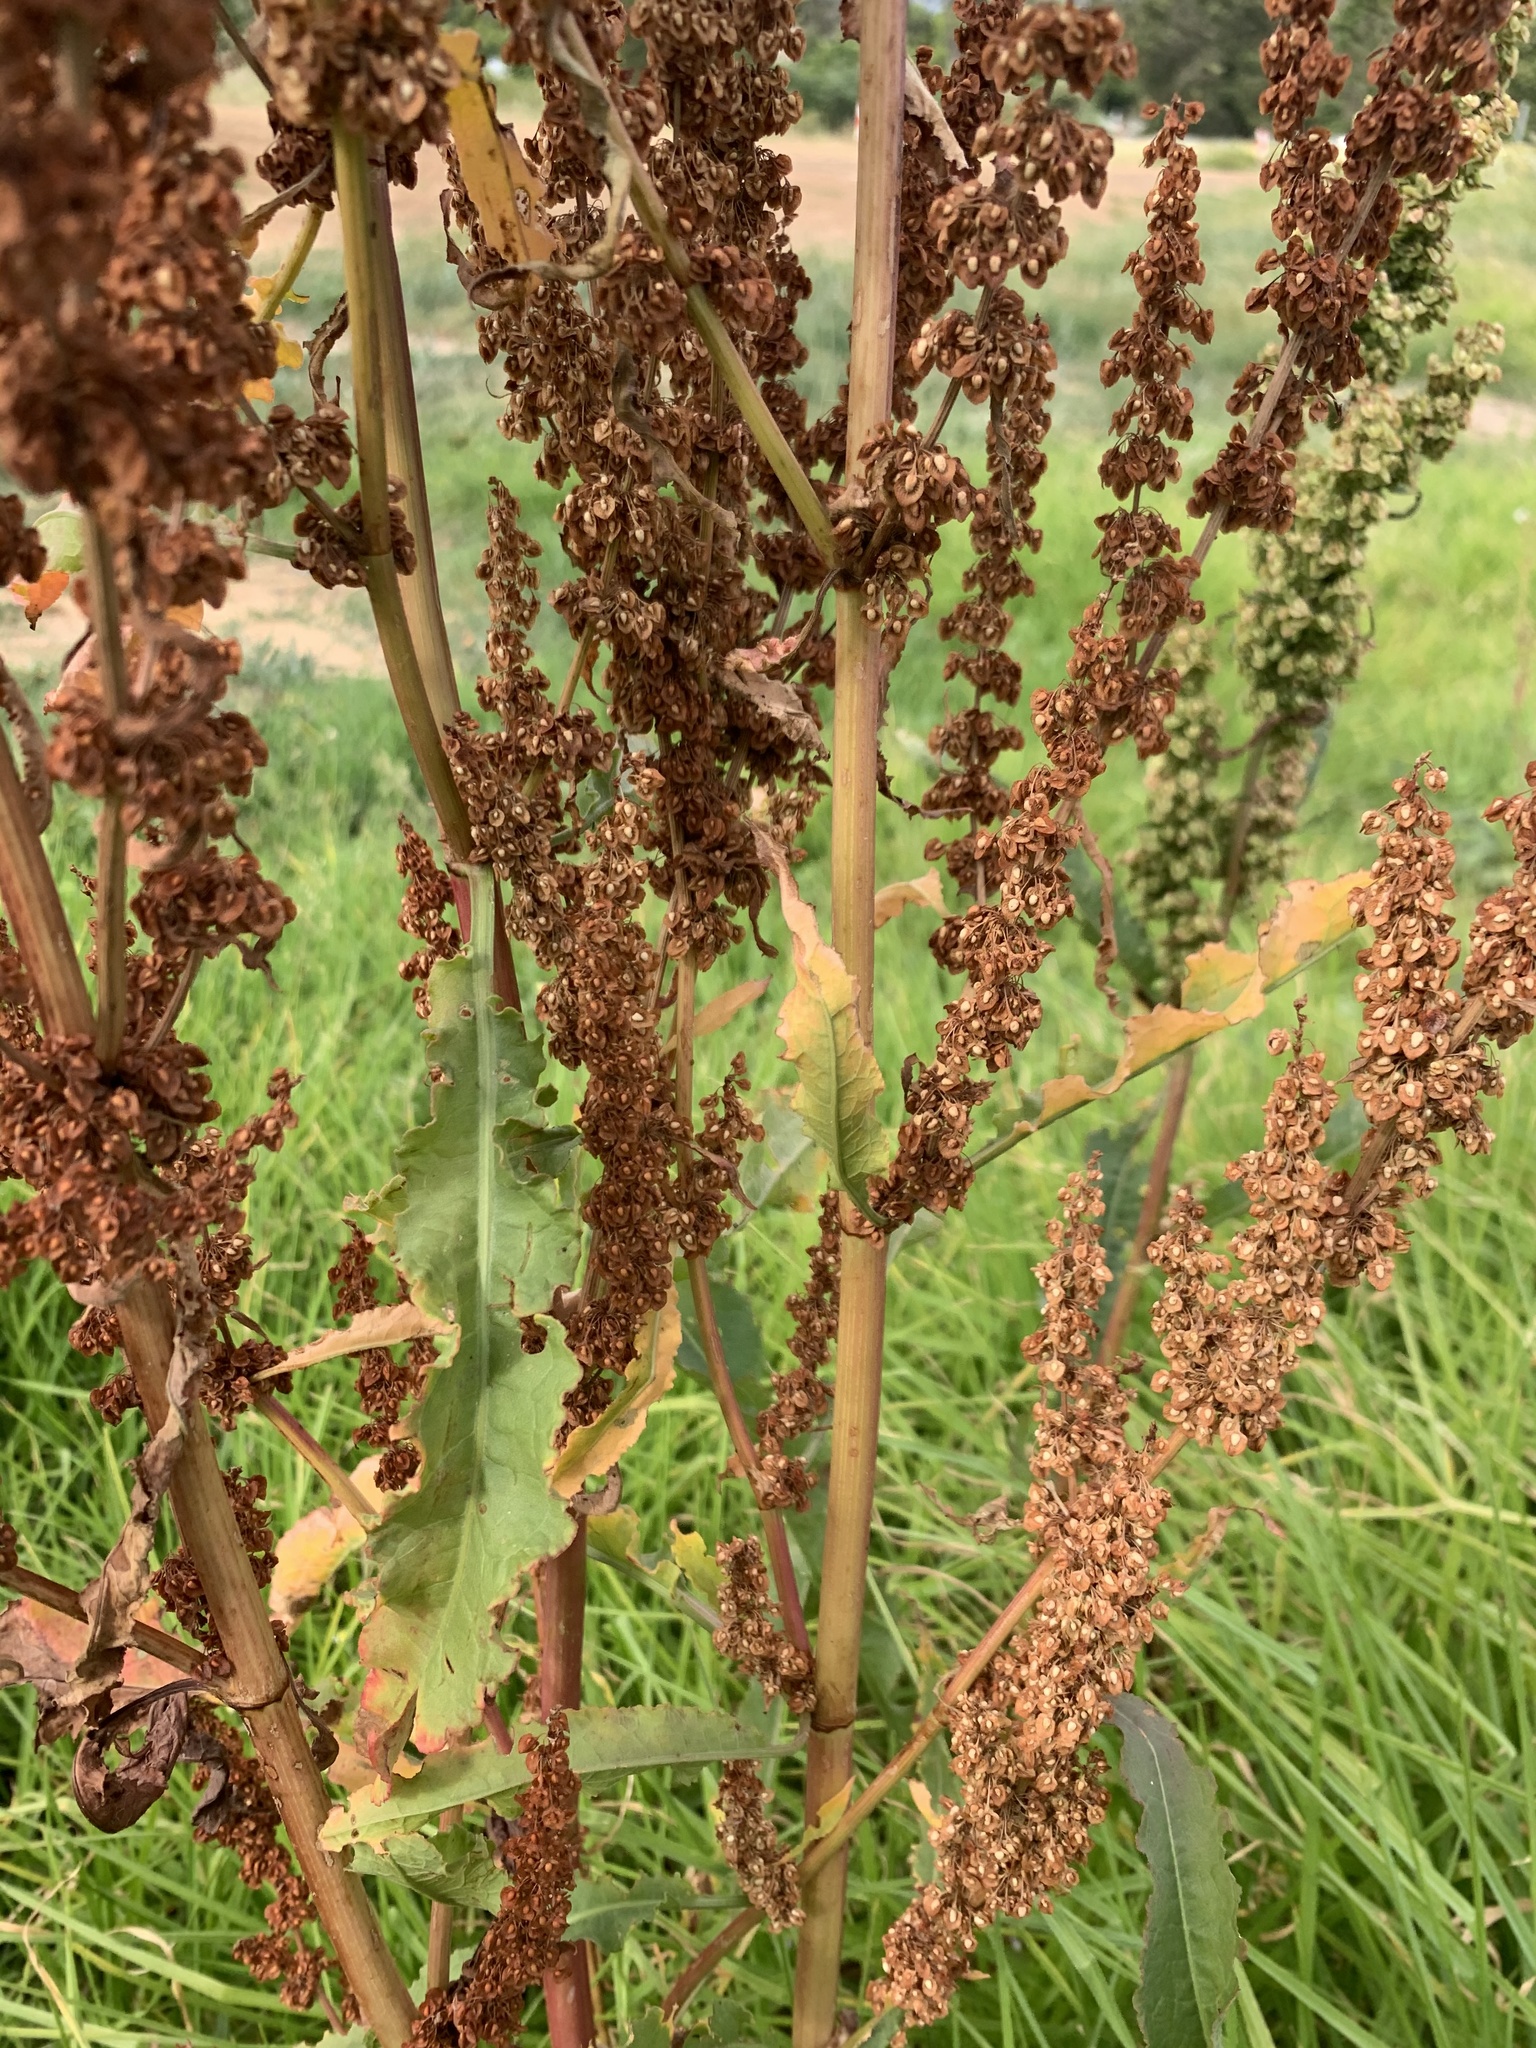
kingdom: Plantae
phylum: Tracheophyta
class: Magnoliopsida
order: Caryophyllales
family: Polygonaceae
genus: Rumex
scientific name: Rumex crispus
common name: Curled dock
